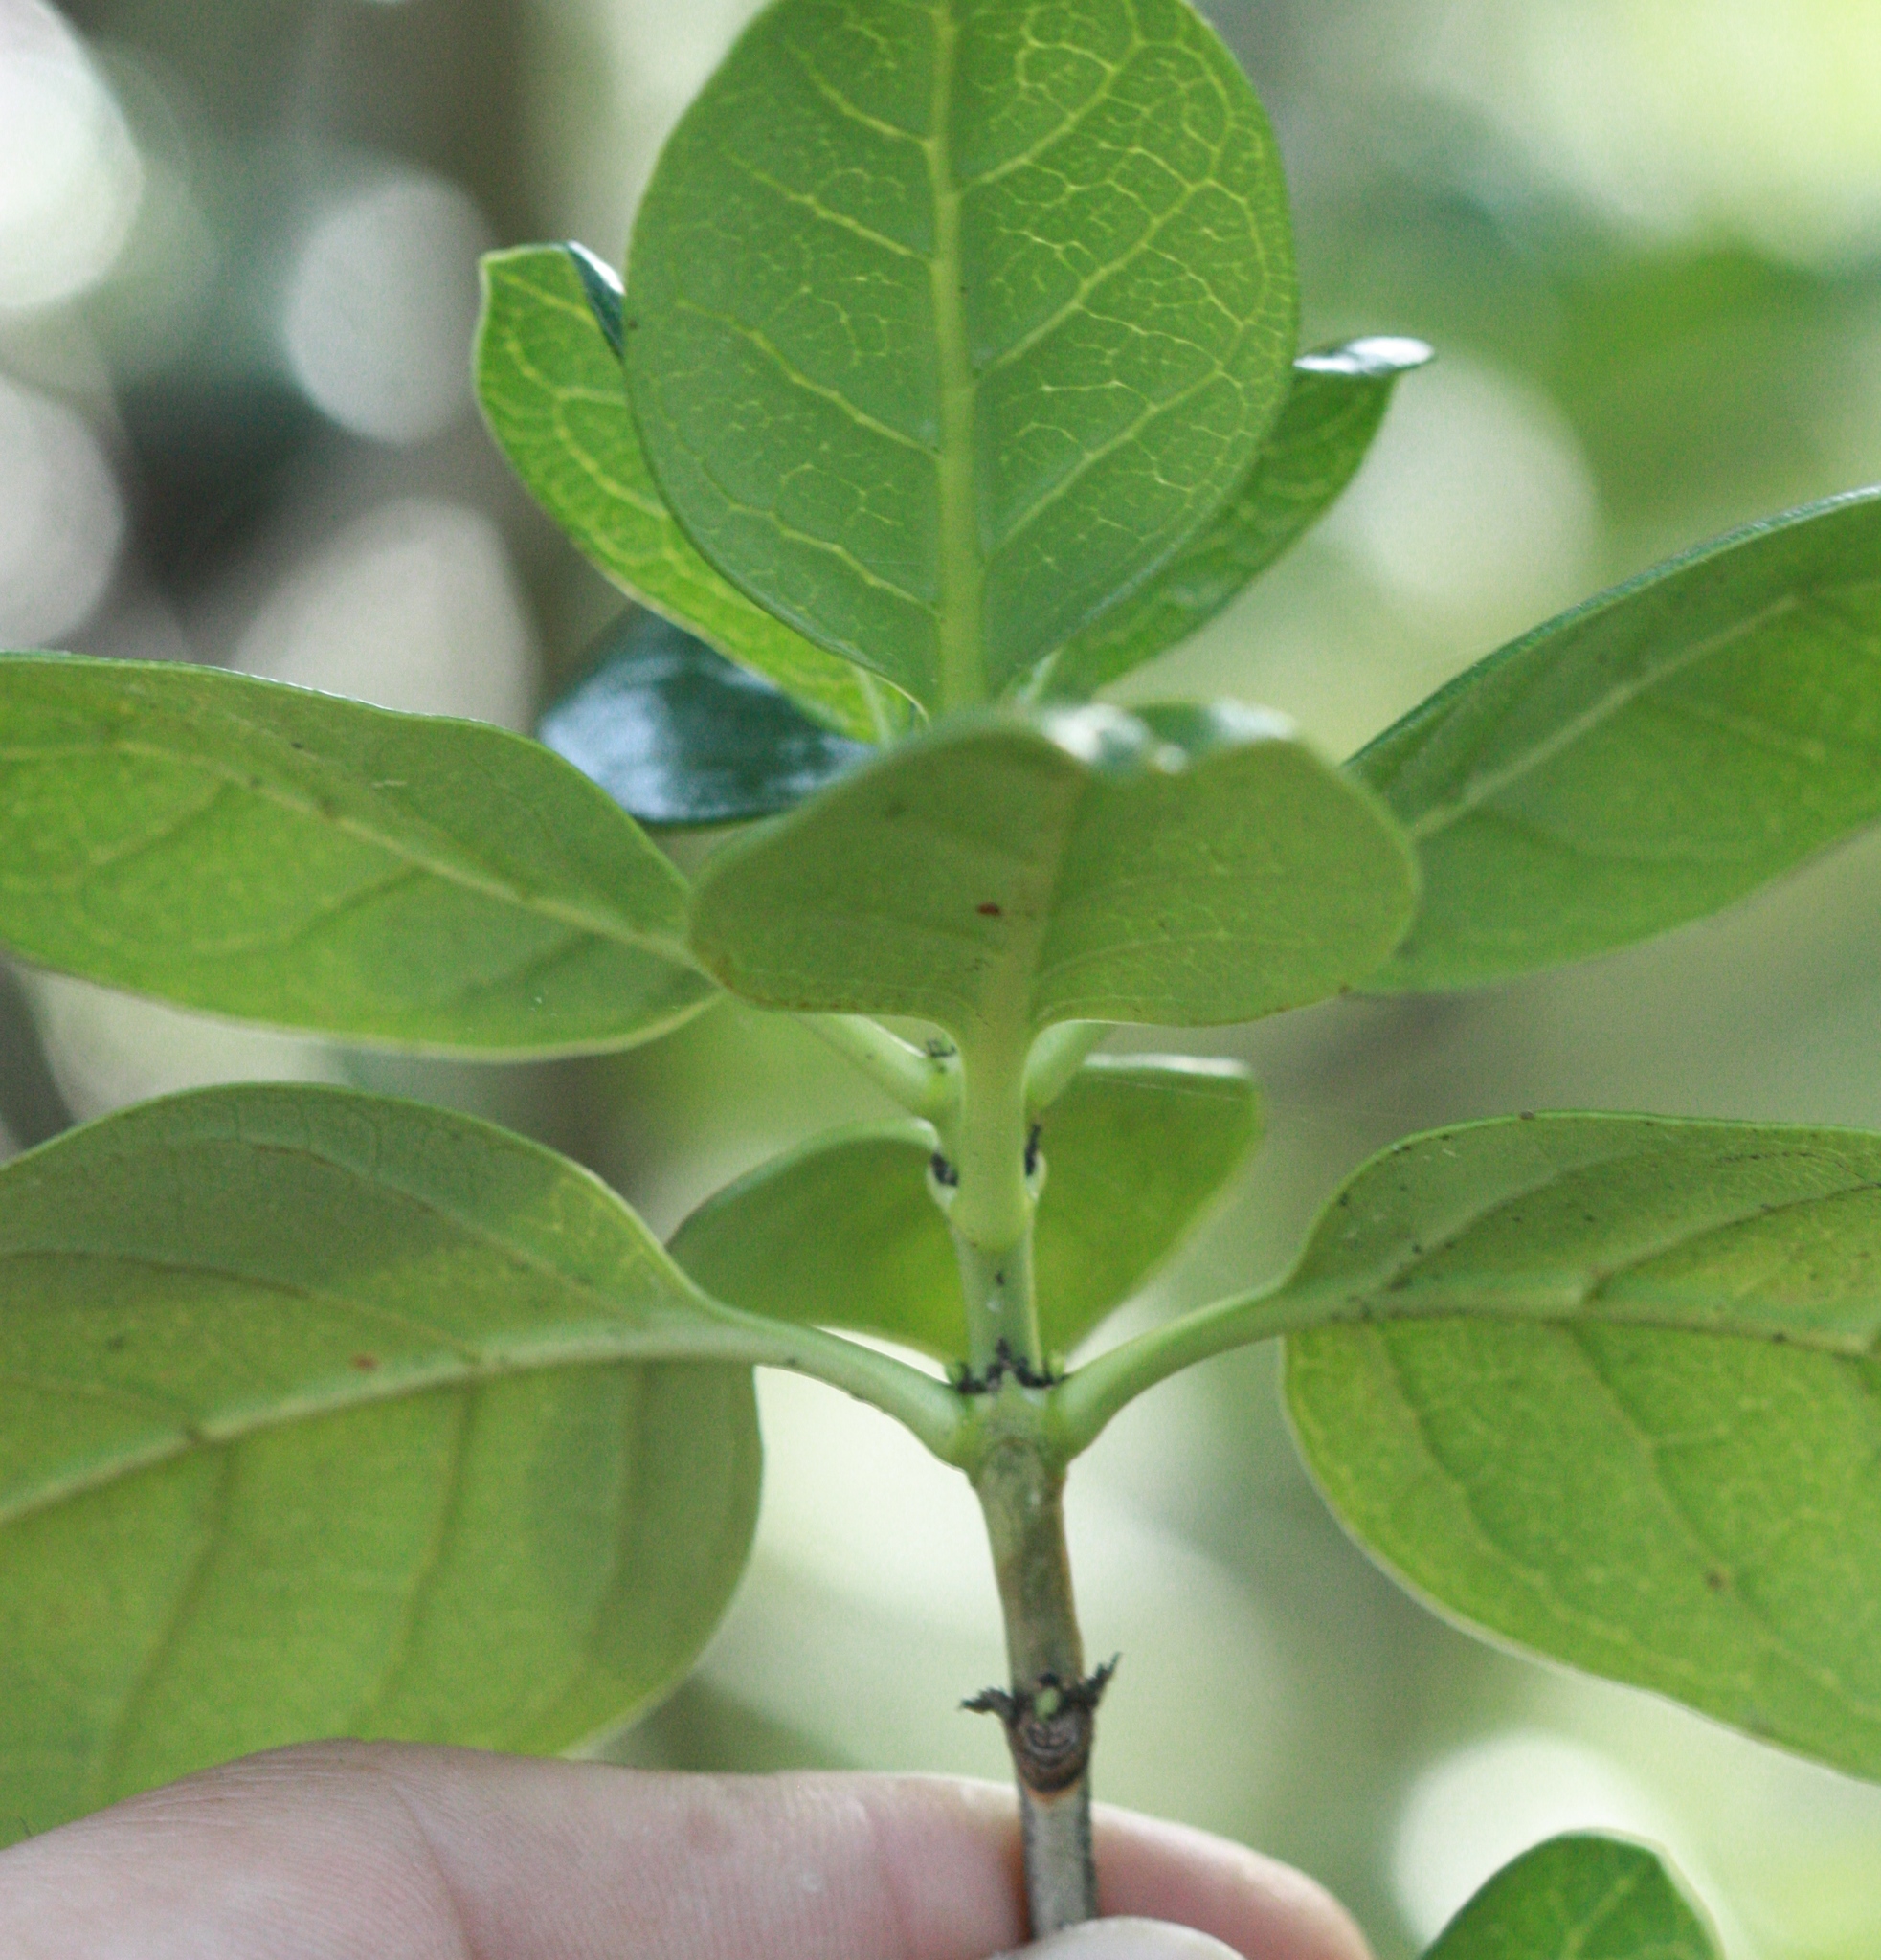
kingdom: Plantae
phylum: Tracheophyta
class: Magnoliopsida
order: Gentianales
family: Rubiaceae
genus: Coprosma
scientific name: Coprosma repens
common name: Tree bedstraw
